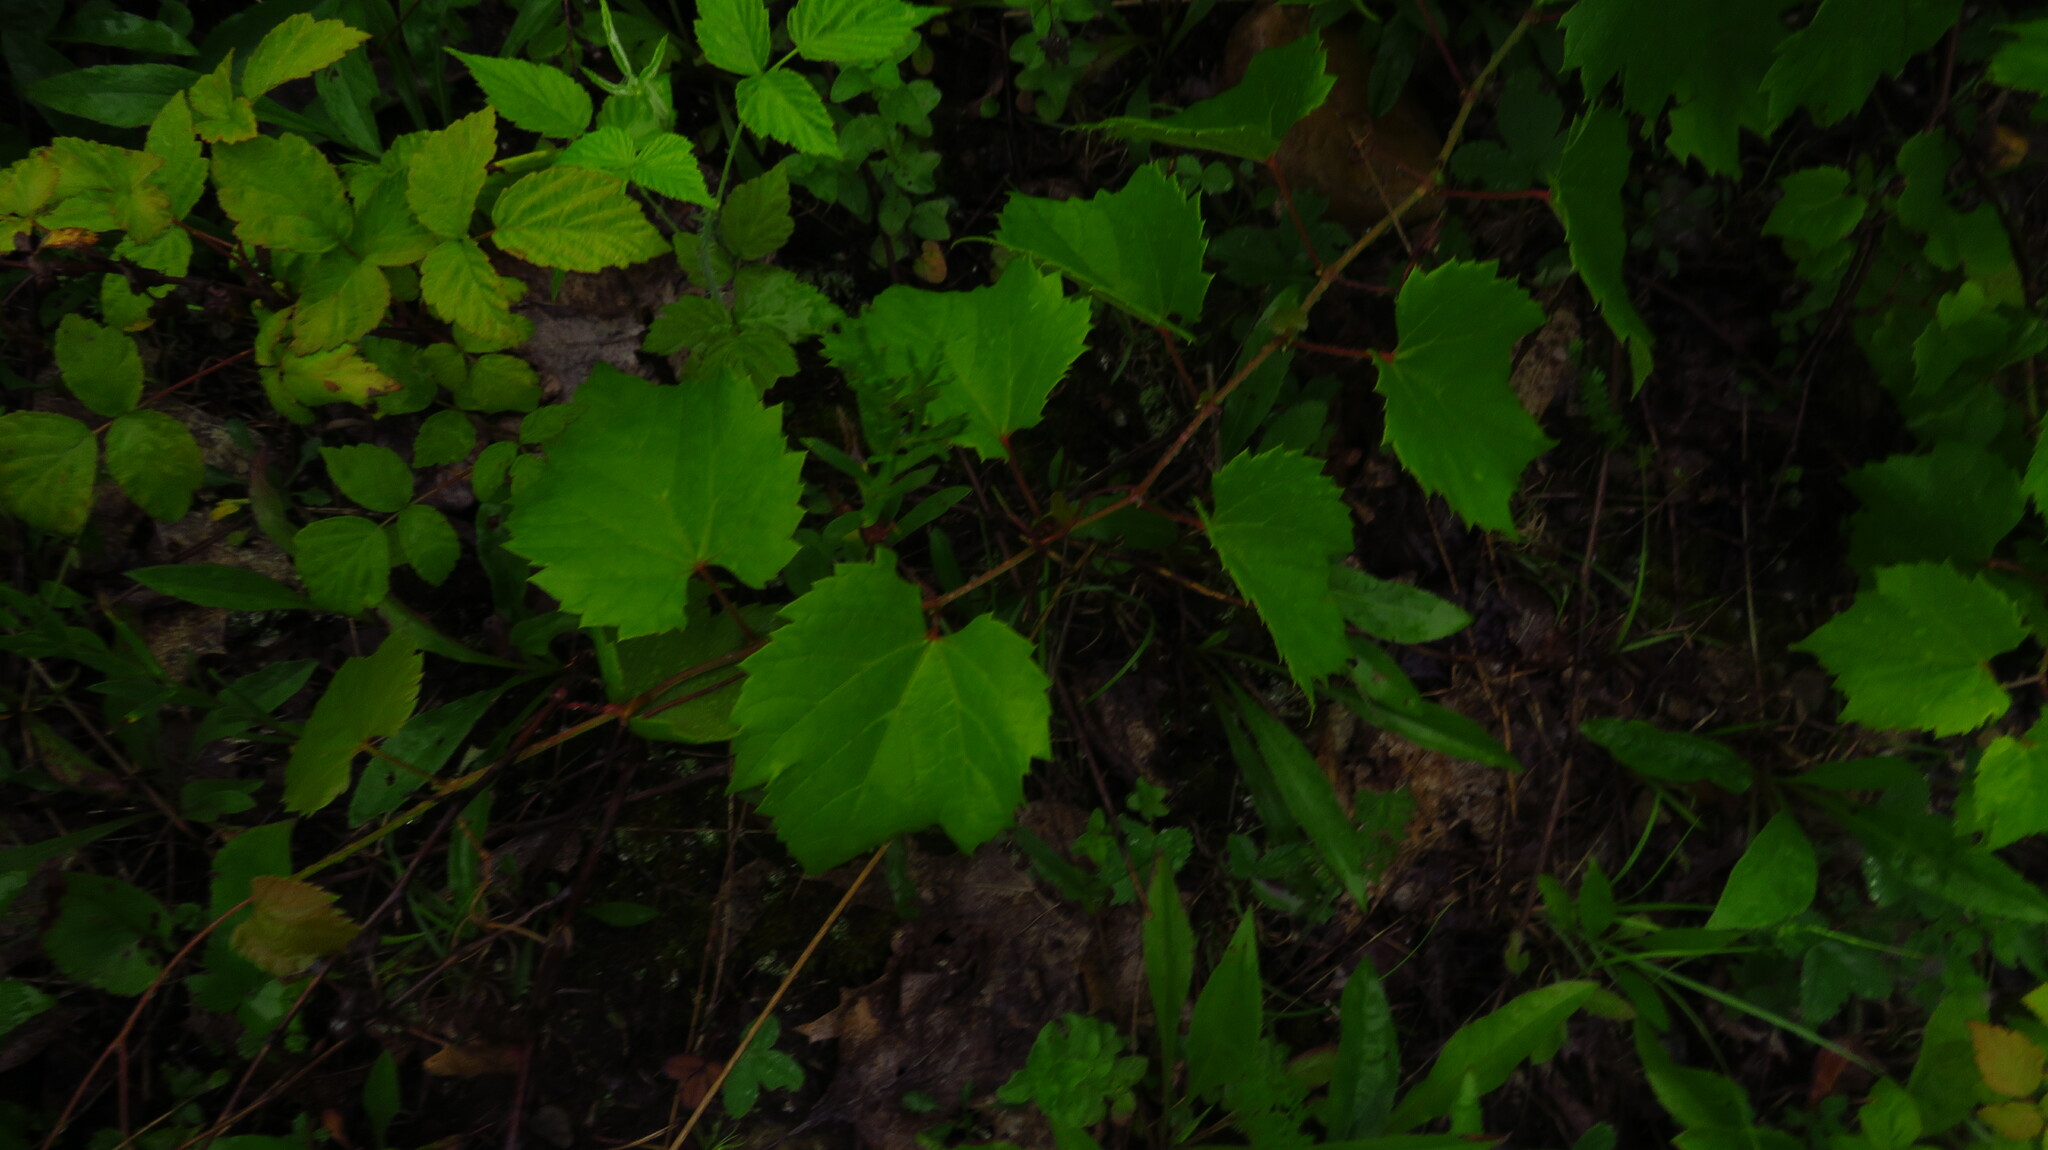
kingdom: Plantae
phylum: Tracheophyta
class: Magnoliopsida
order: Vitales
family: Vitaceae
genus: Vitis
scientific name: Vitis riparia
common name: Frost grape
